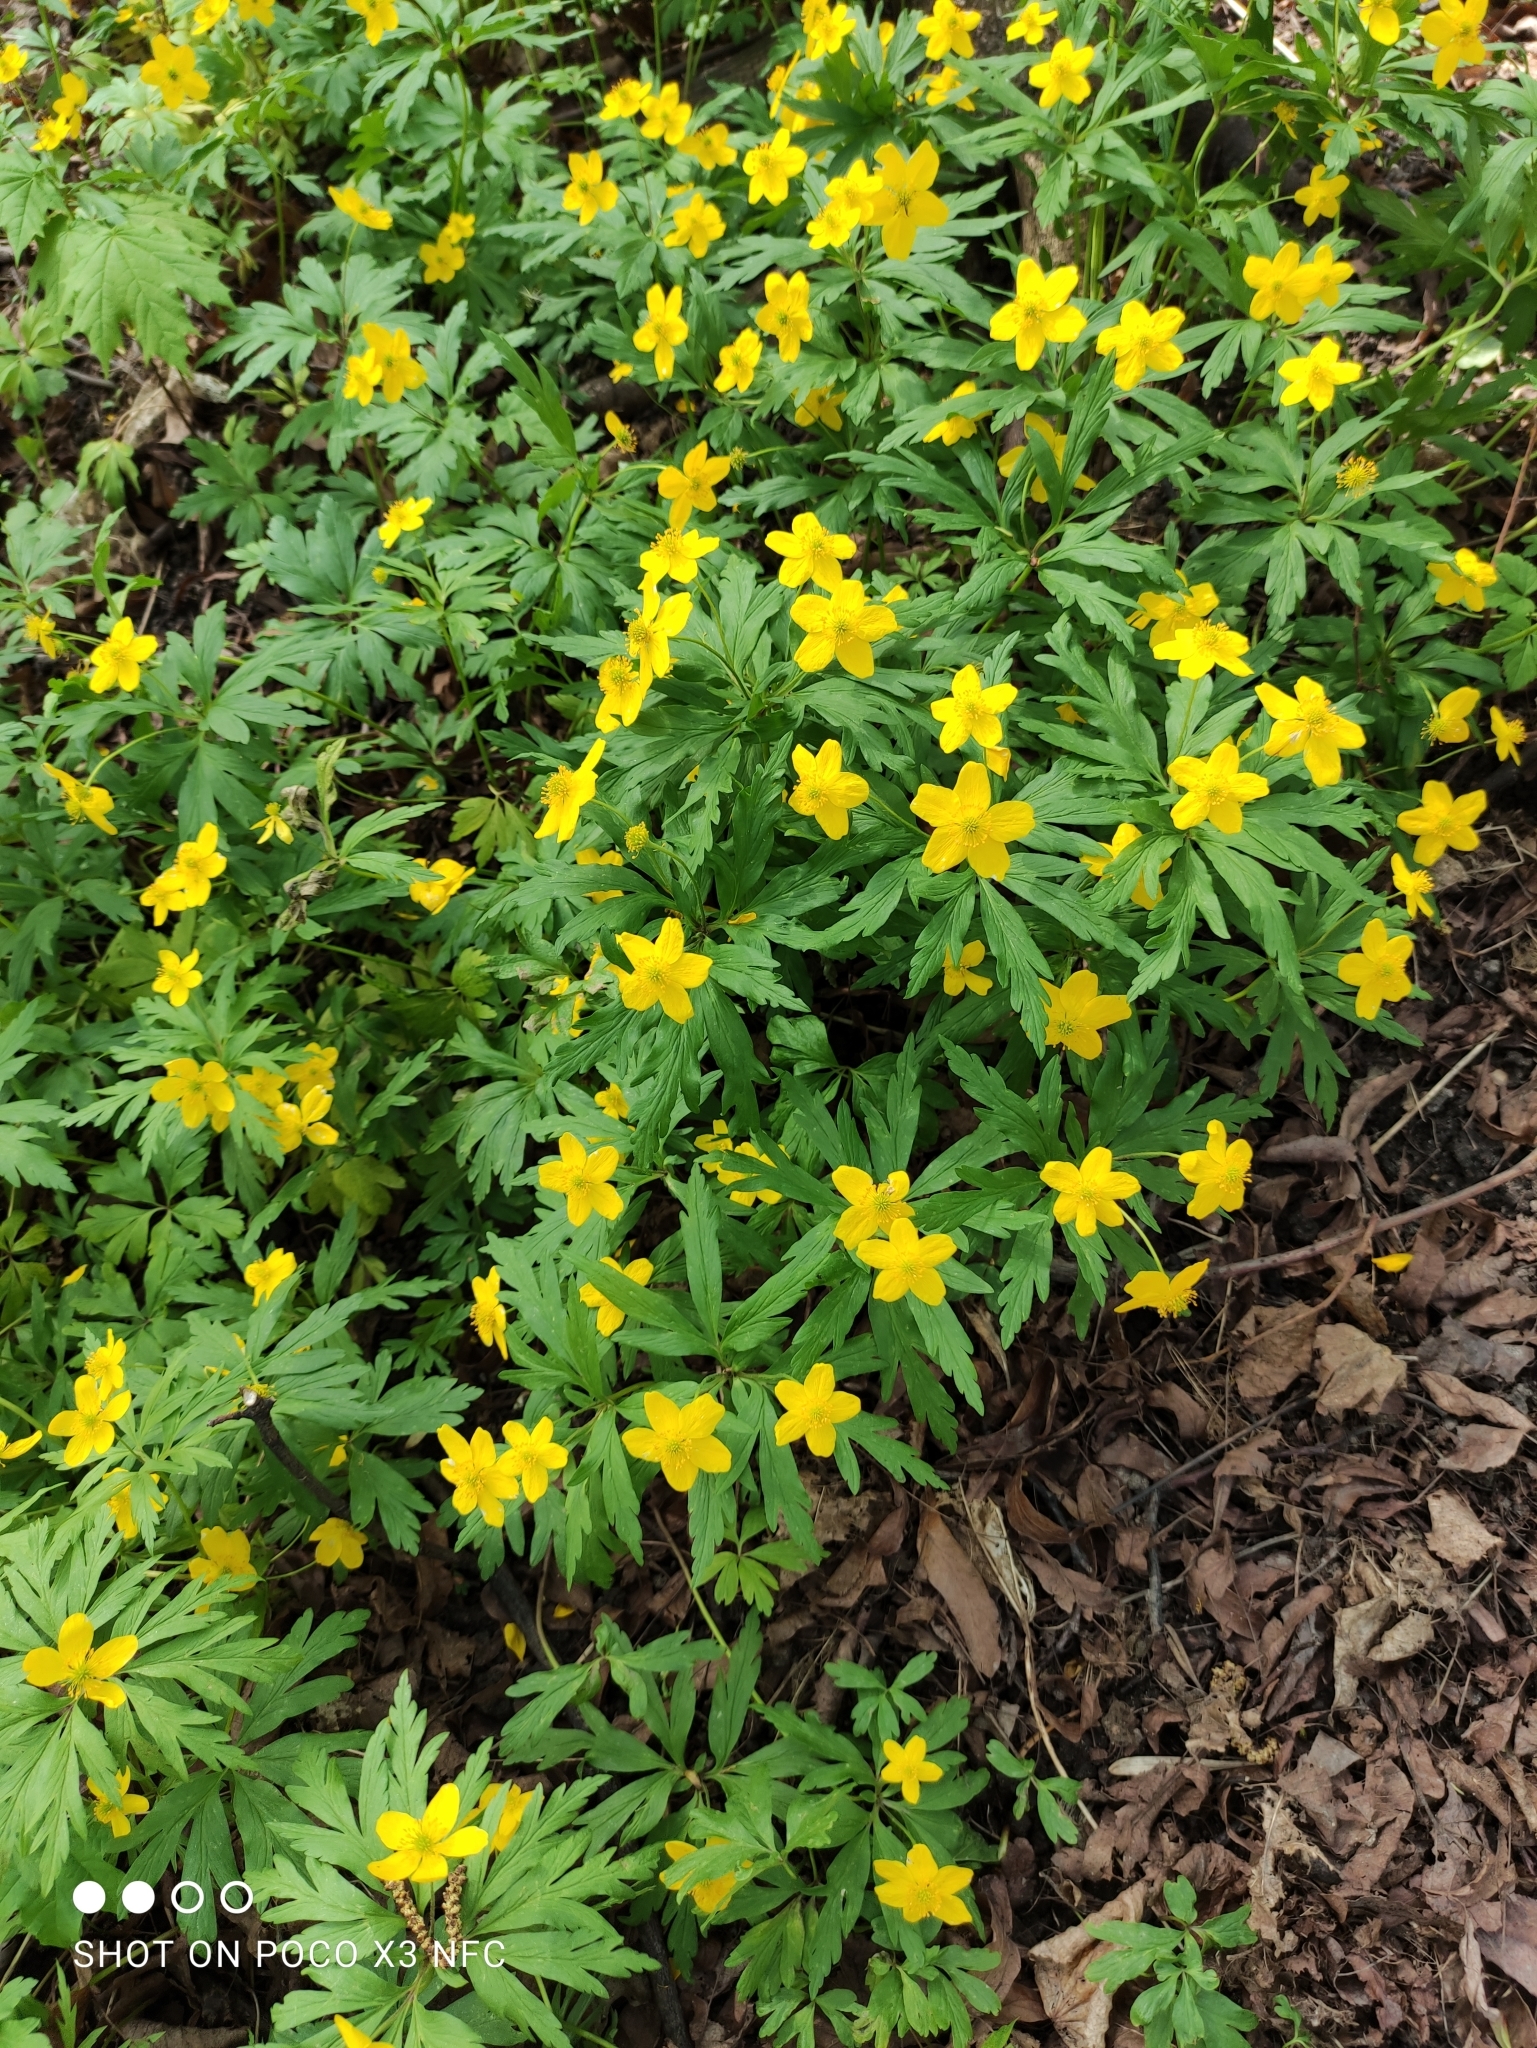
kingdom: Plantae
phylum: Tracheophyta
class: Magnoliopsida
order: Ranunculales
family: Ranunculaceae
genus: Anemone
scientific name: Anemone ranunculoides
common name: Yellow anemone
